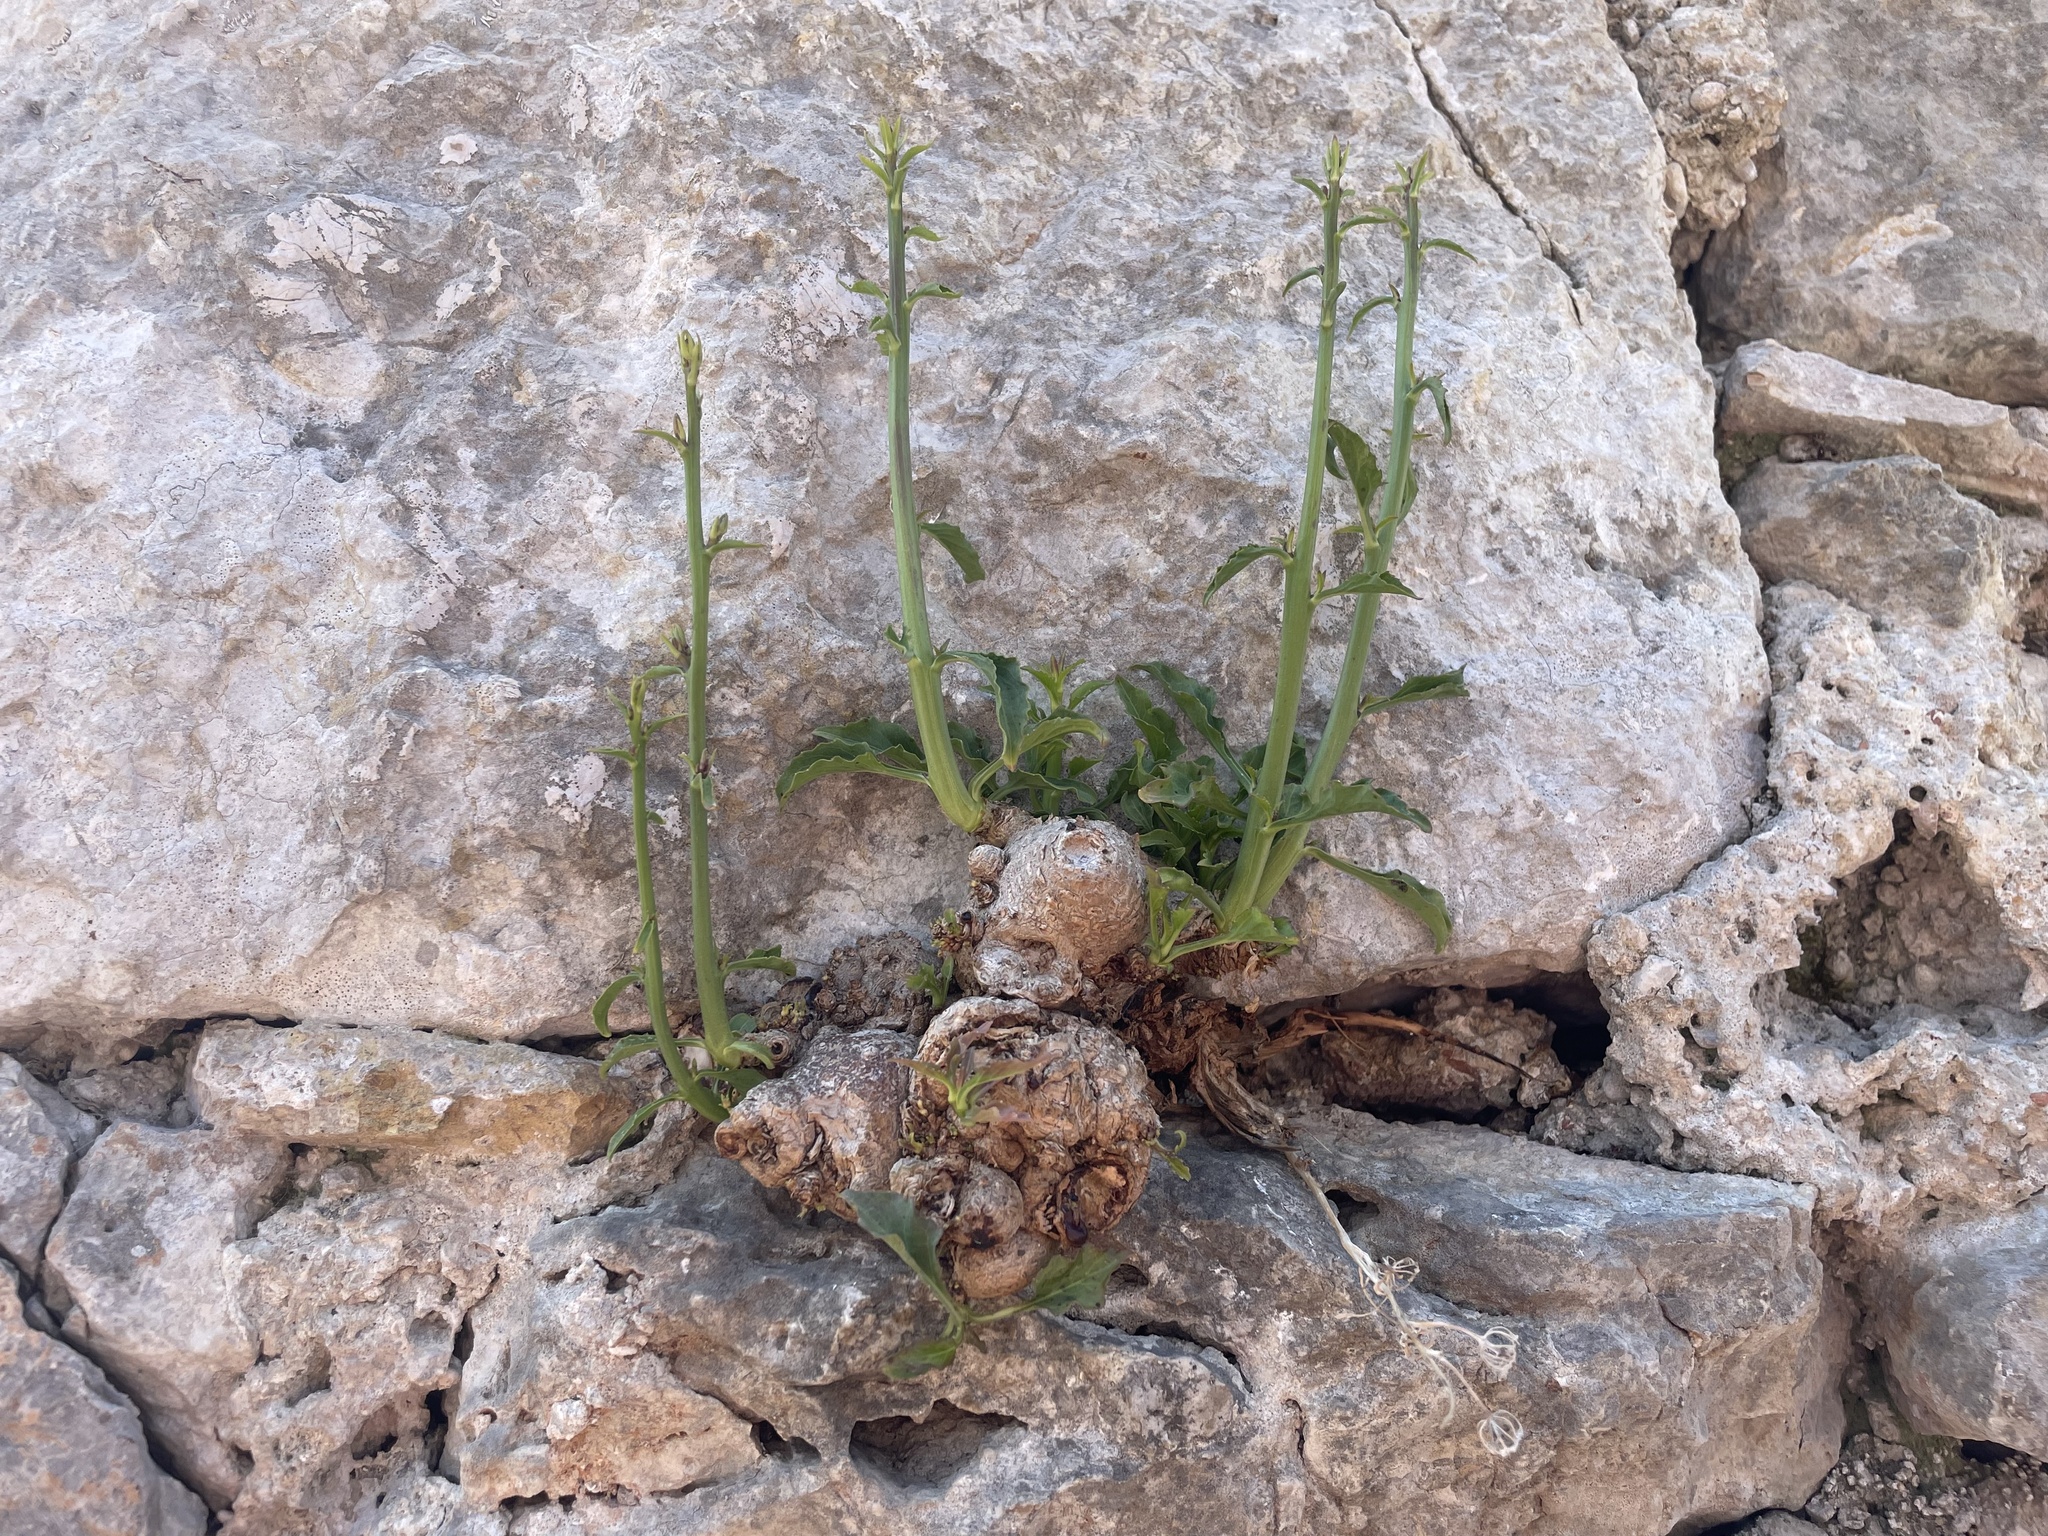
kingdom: Plantae
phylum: Tracheophyta
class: Magnoliopsida
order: Asterales
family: Campanulaceae
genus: Campanula
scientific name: Campanula pyramidalis
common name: Chimney bellflower
